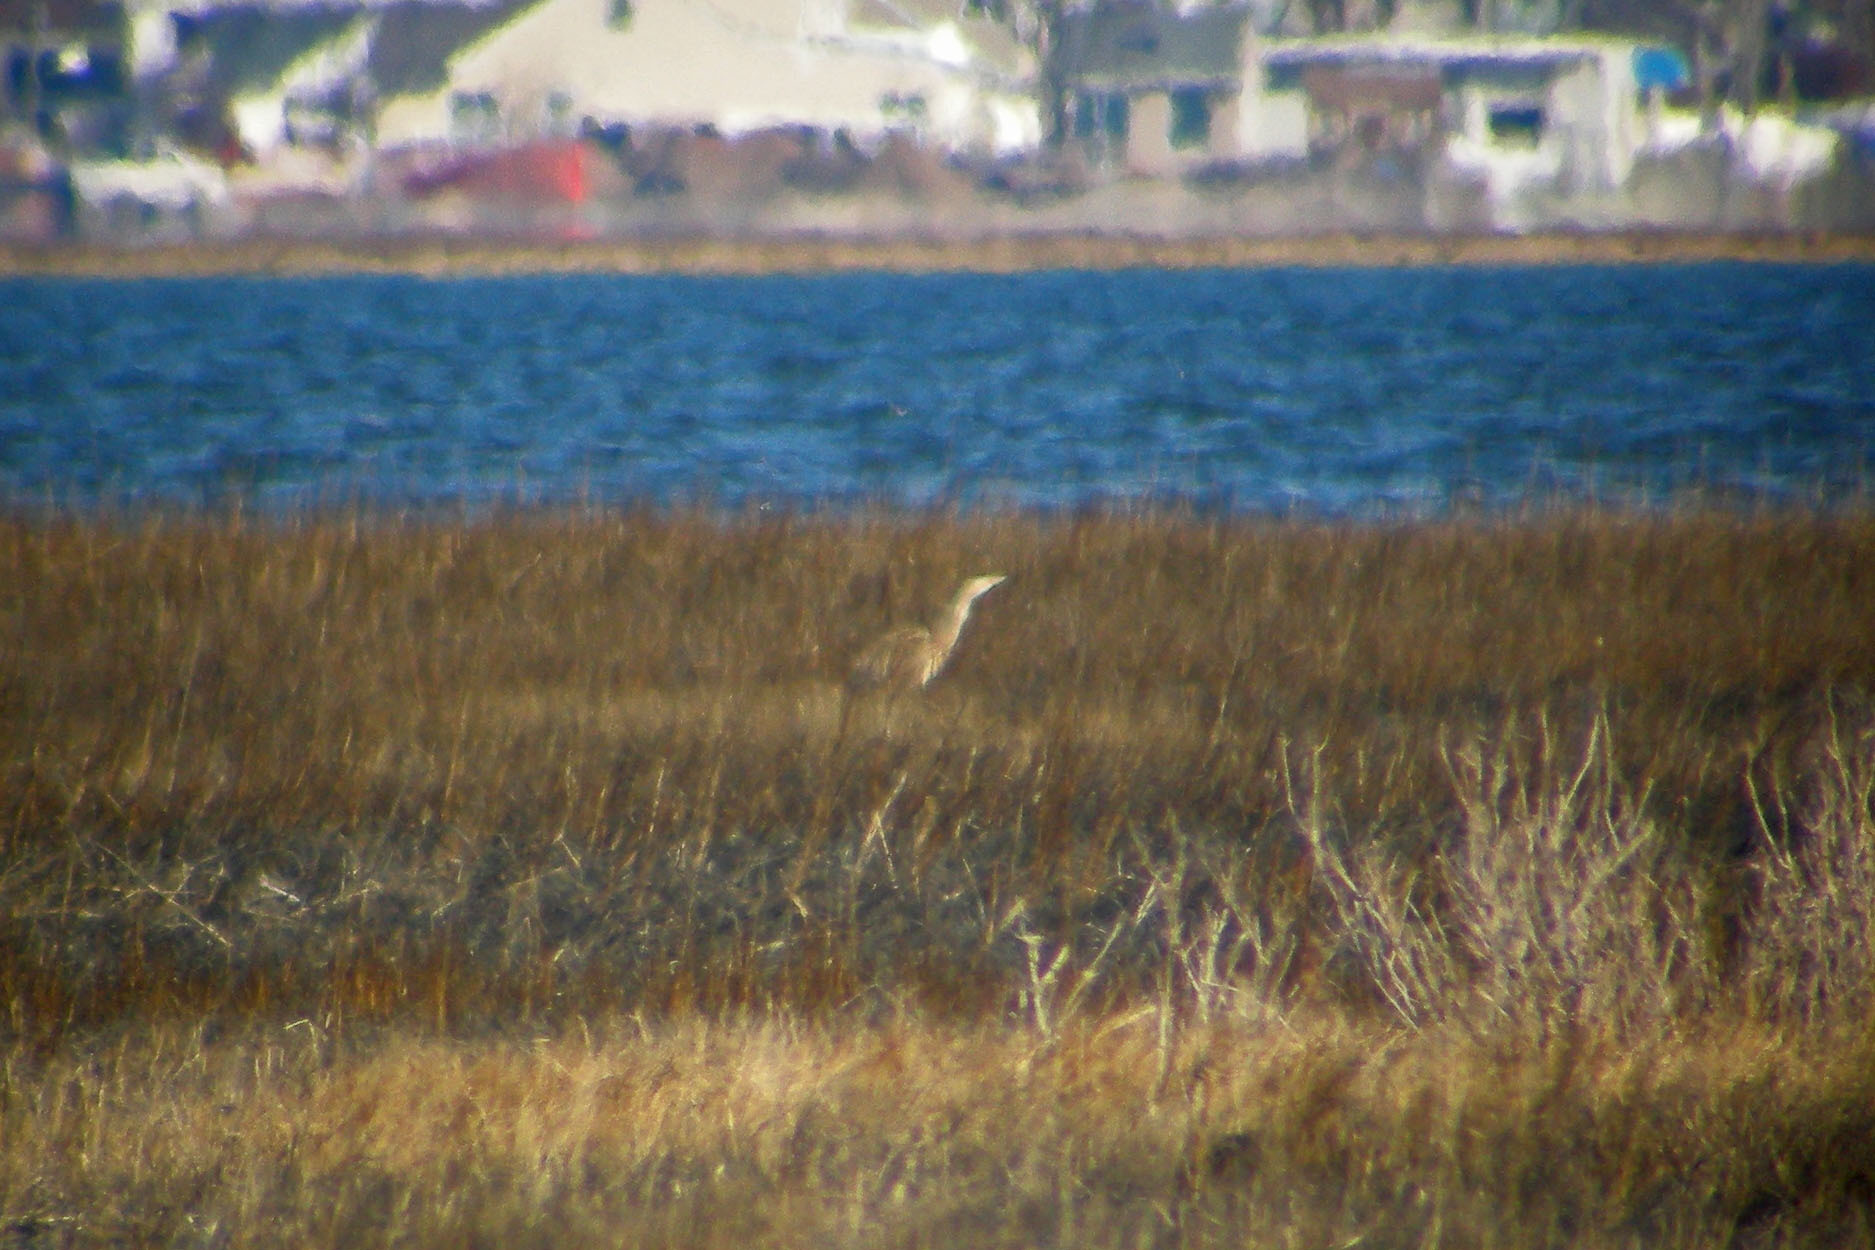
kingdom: Animalia
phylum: Chordata
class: Aves
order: Pelecaniformes
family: Ardeidae
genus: Botaurus
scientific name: Botaurus lentiginosus
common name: American bittern
